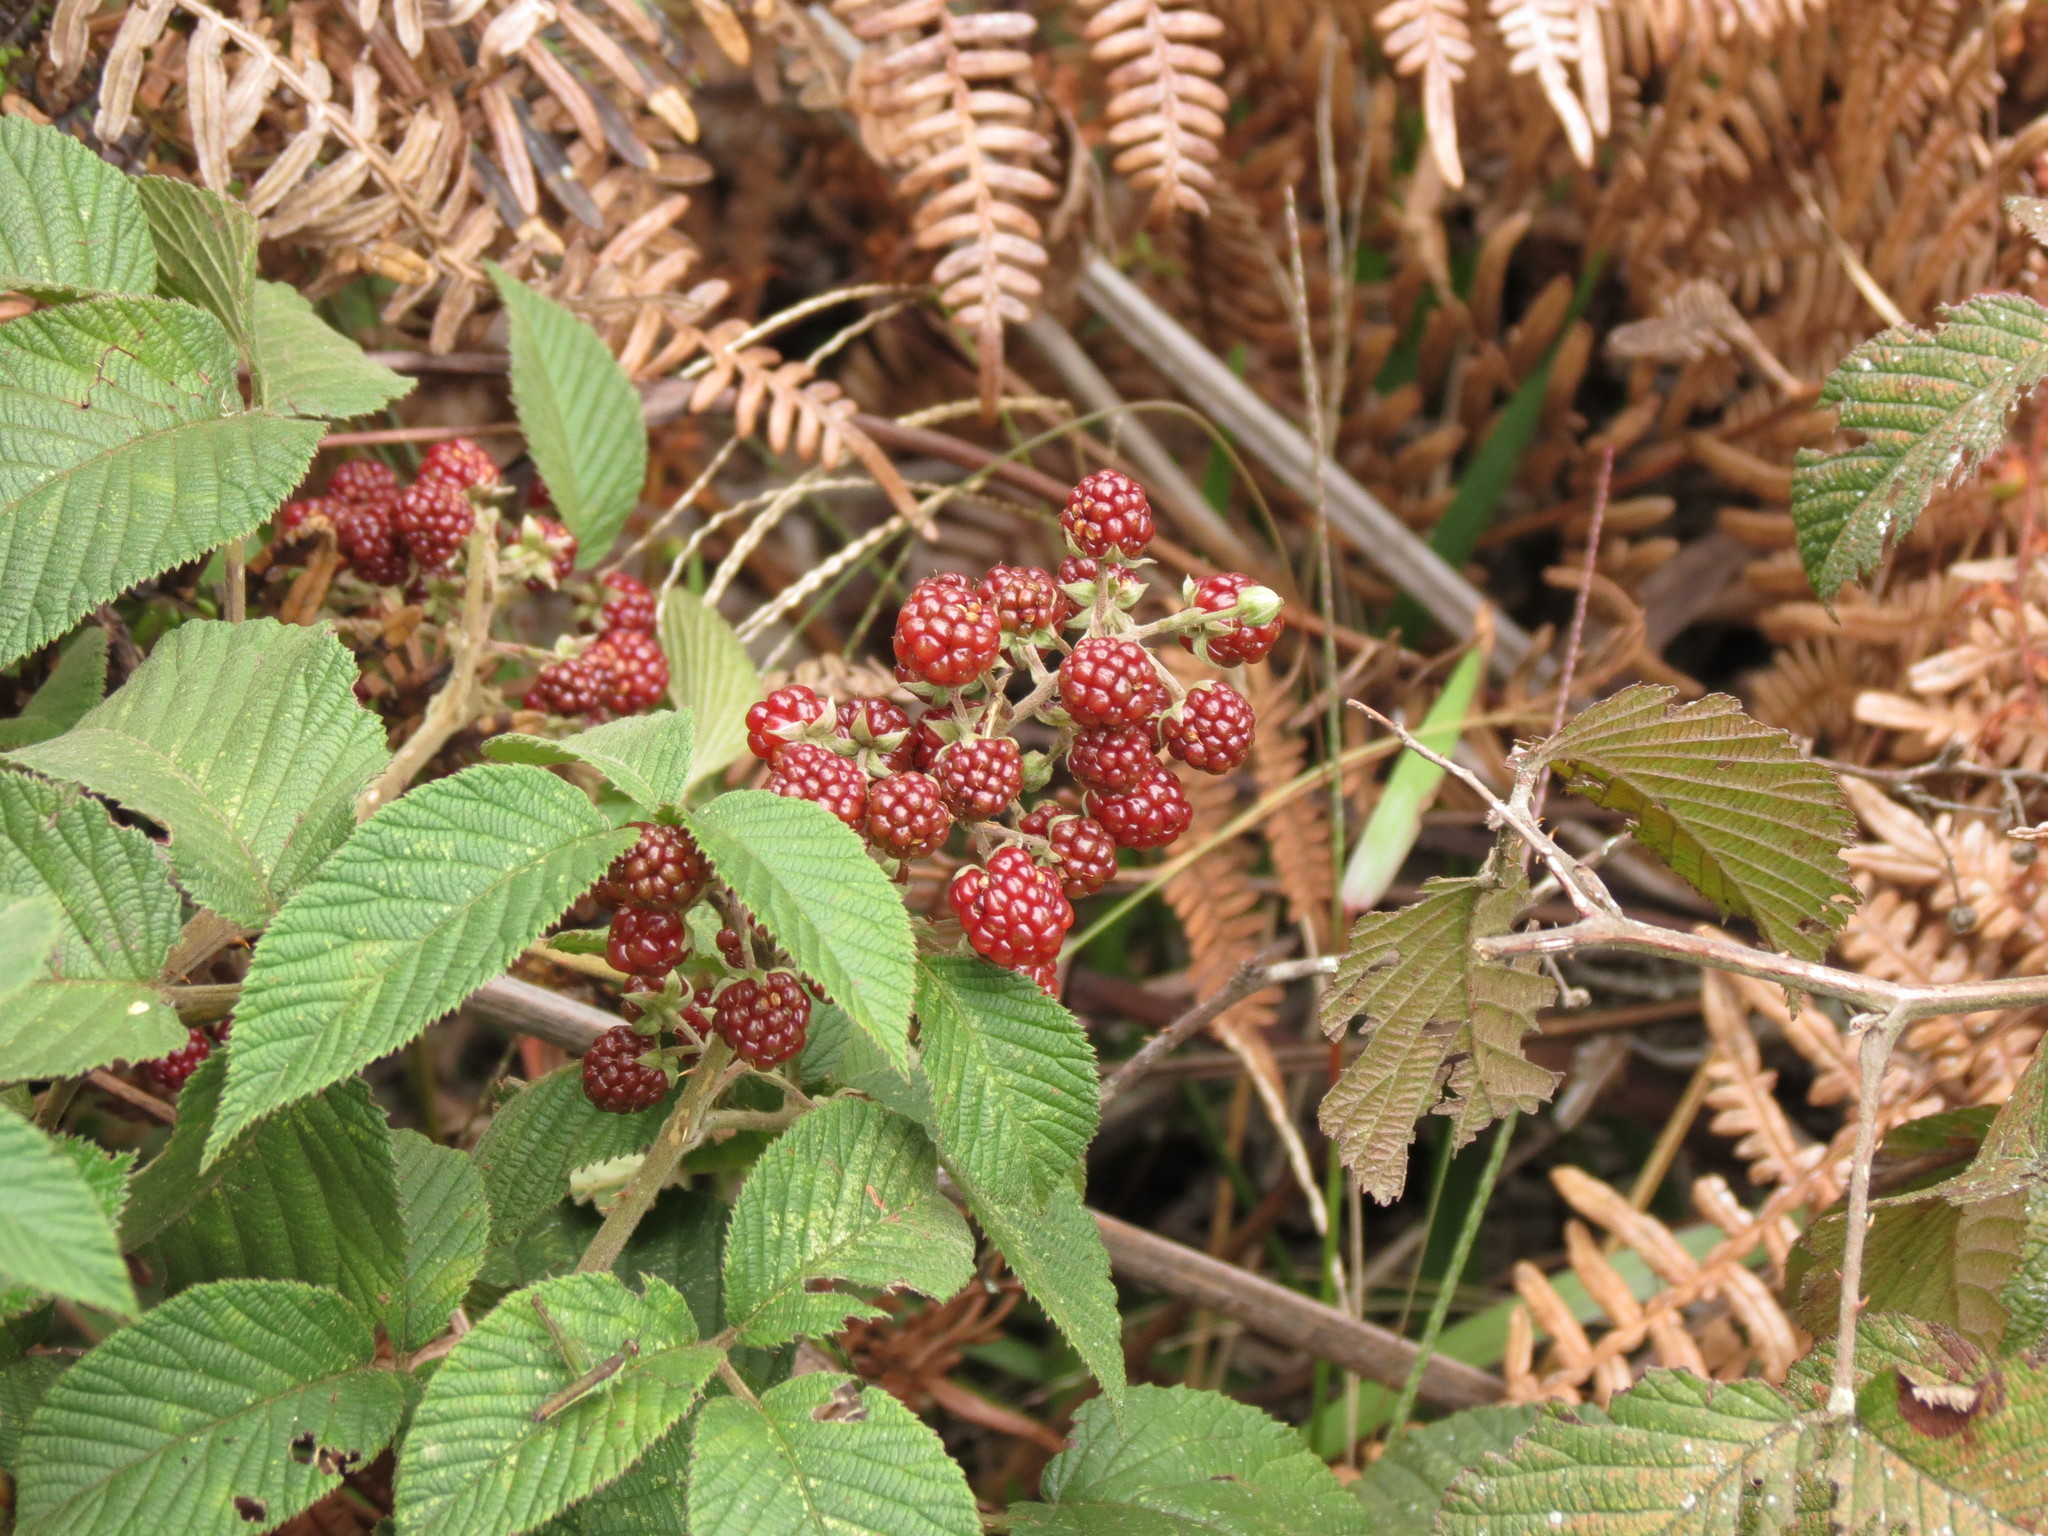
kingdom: Plantae
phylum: Tracheophyta
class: Magnoliopsida
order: Rosales
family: Rosaceae
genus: Rubus
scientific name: Rubus urticifolius
